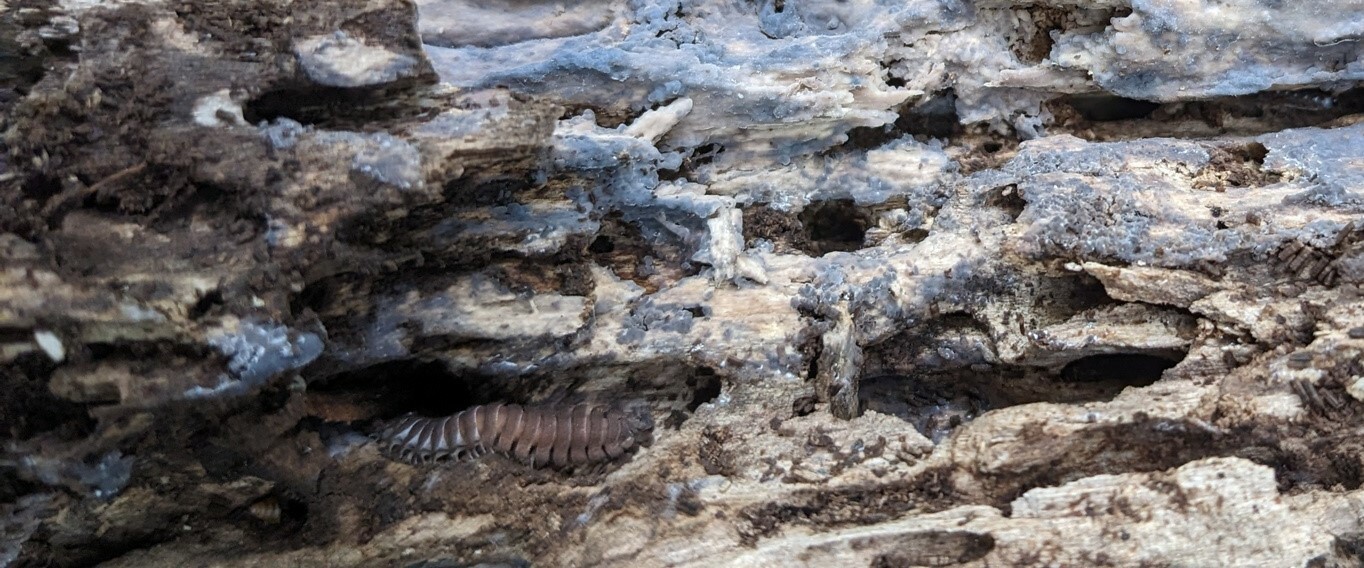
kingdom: Animalia
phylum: Arthropoda
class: Diplopoda
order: Polydesmida
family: Cryptodesmidae
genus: Niponia
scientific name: Niponia nodulosa
